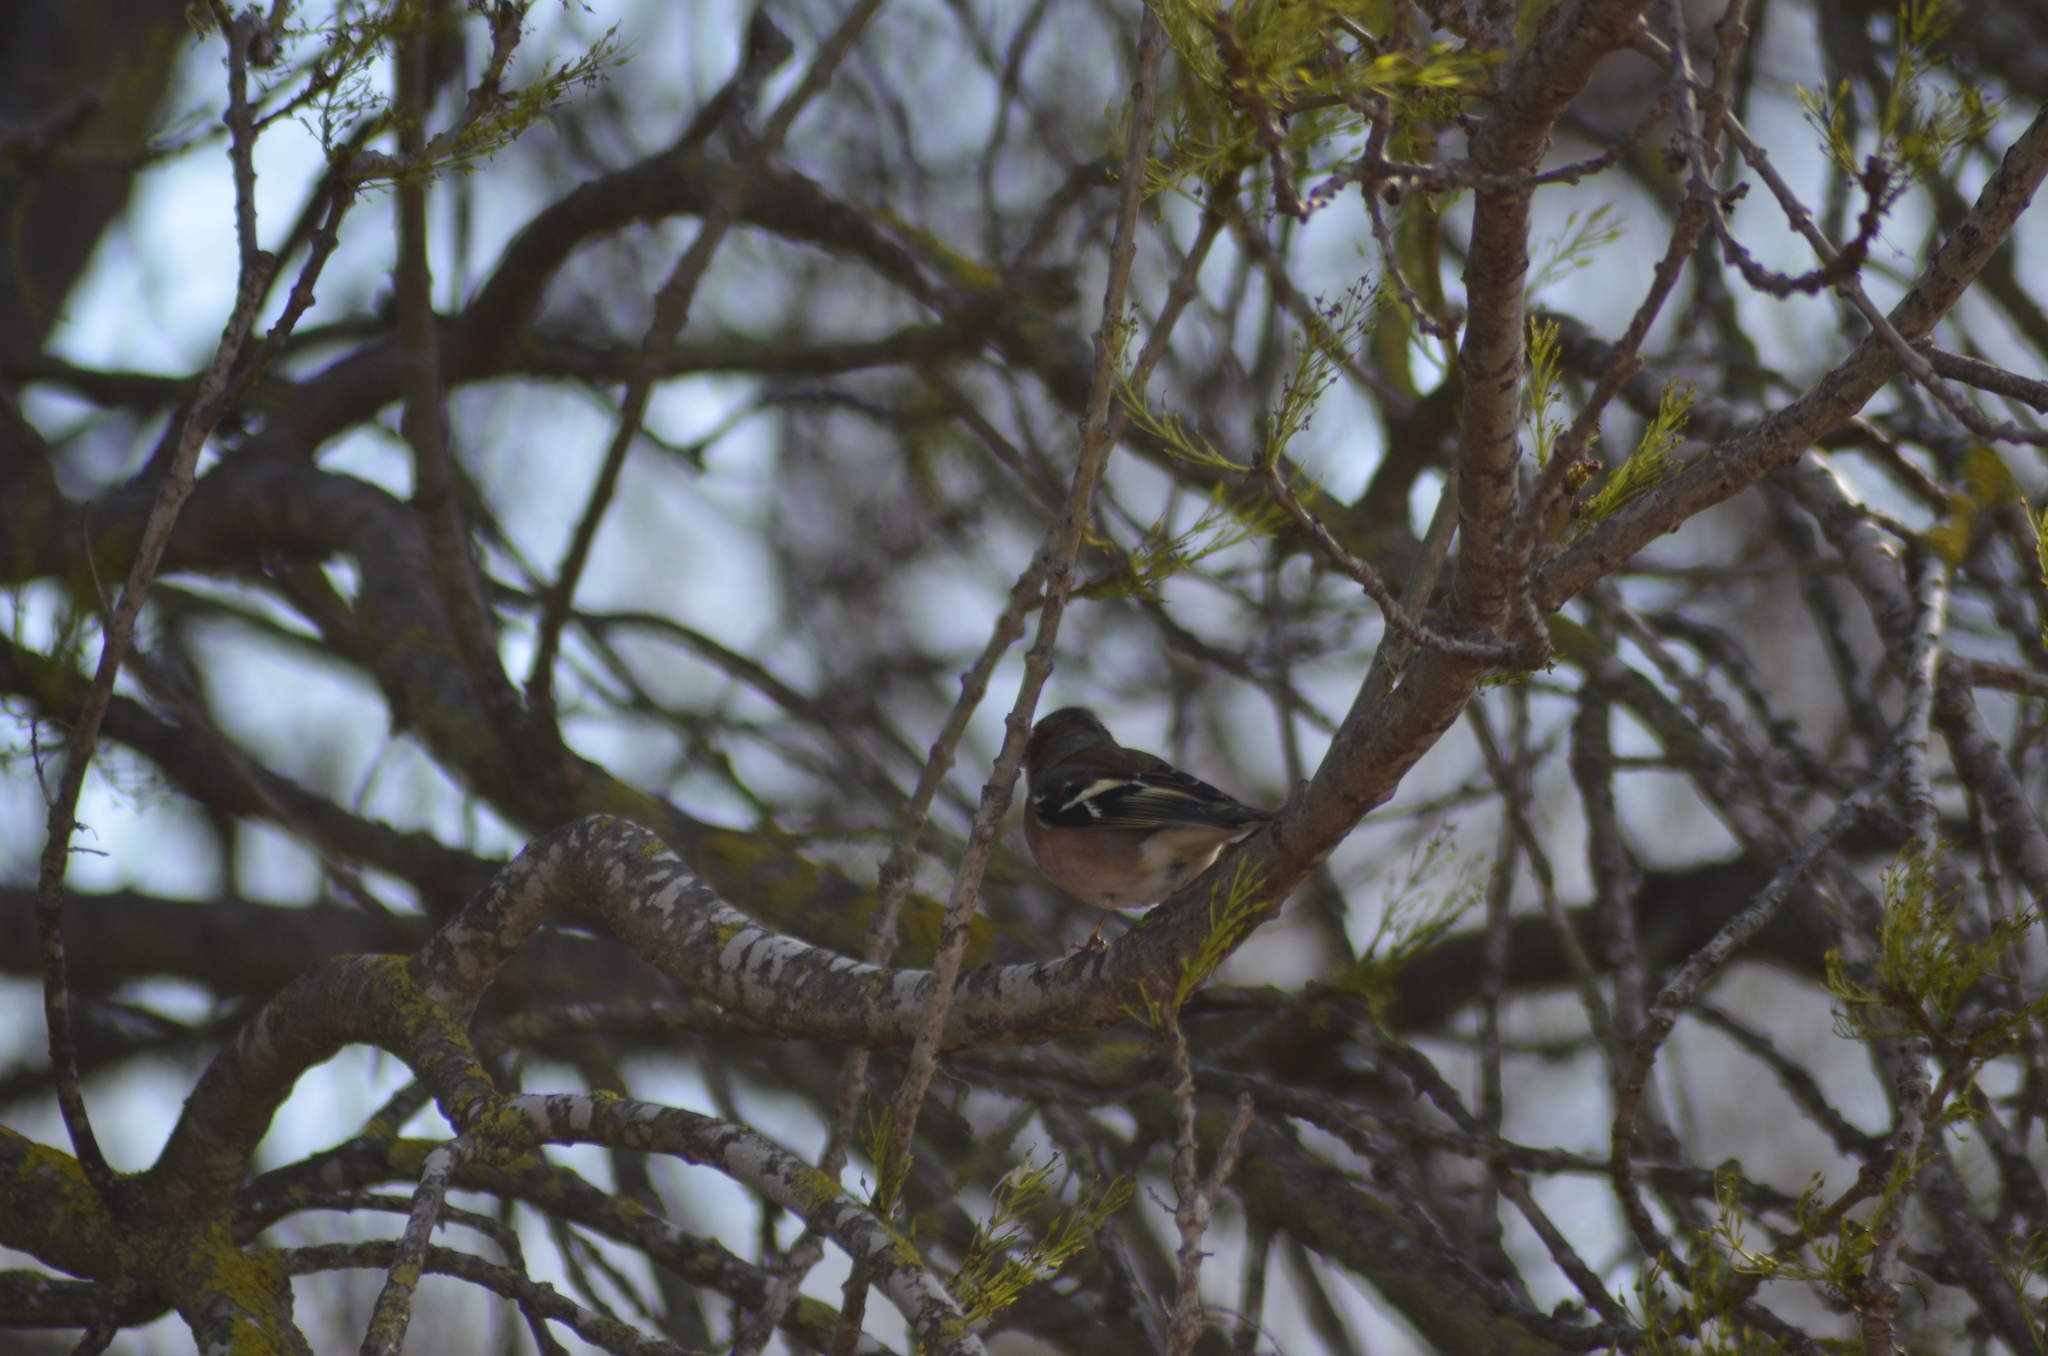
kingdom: Animalia
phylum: Chordata
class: Aves
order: Passeriformes
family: Fringillidae
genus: Fringilla
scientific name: Fringilla coelebs
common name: Common chaffinch
